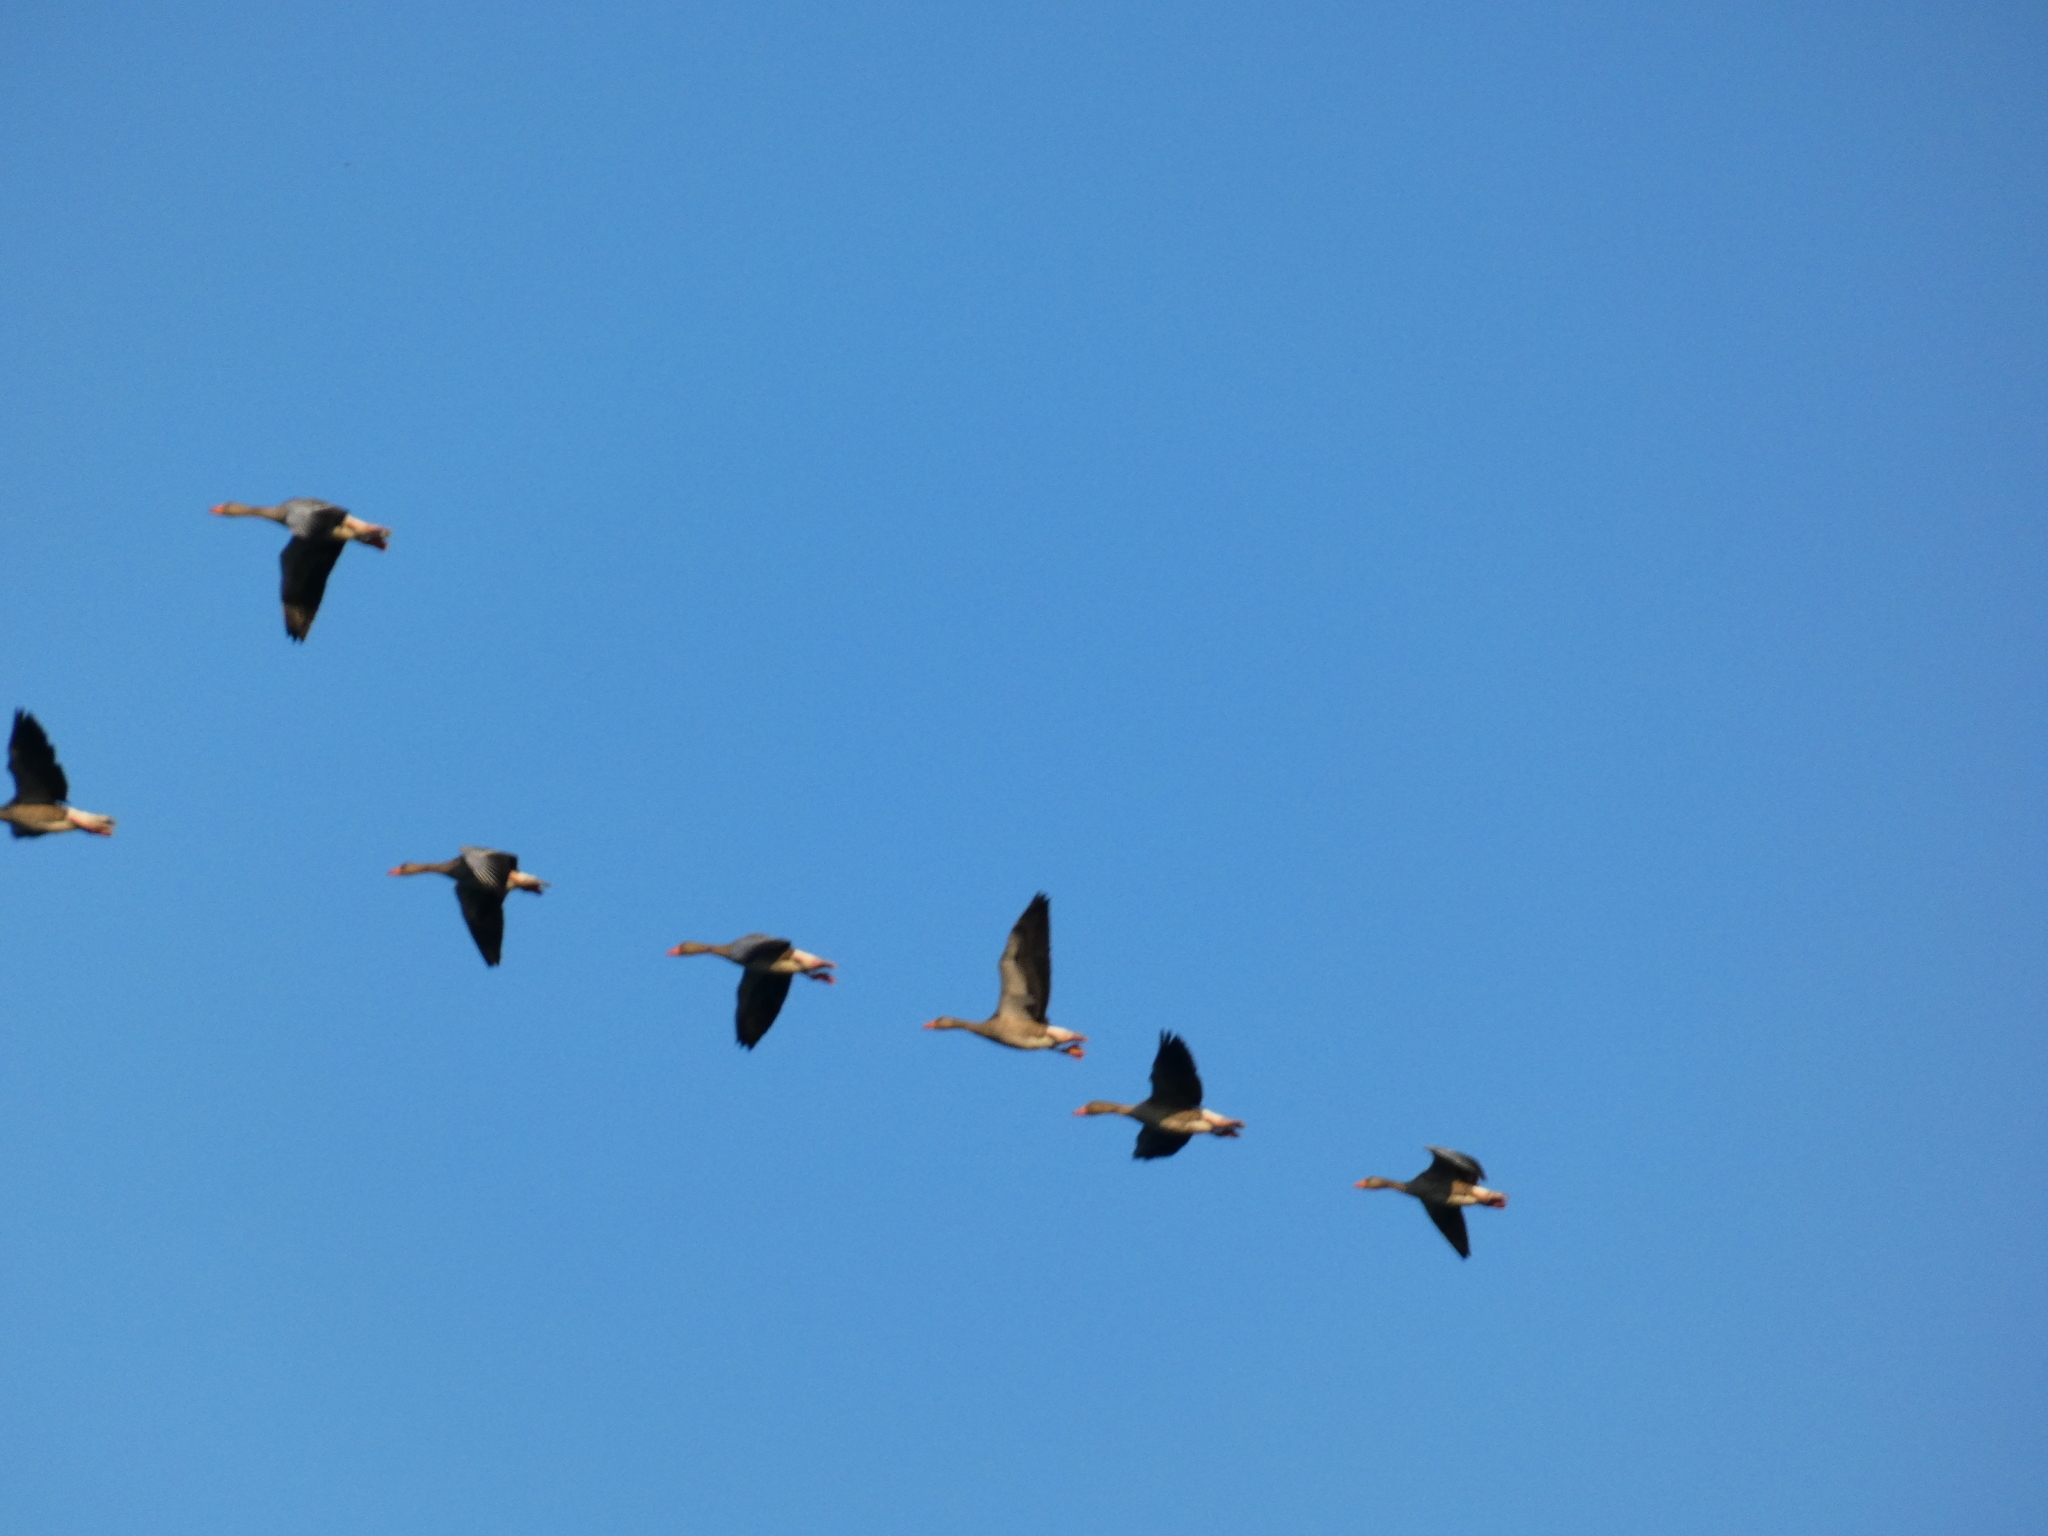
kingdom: Animalia
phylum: Chordata
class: Aves
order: Anseriformes
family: Anatidae
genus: Anser
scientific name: Anser anser
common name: Greylag goose
